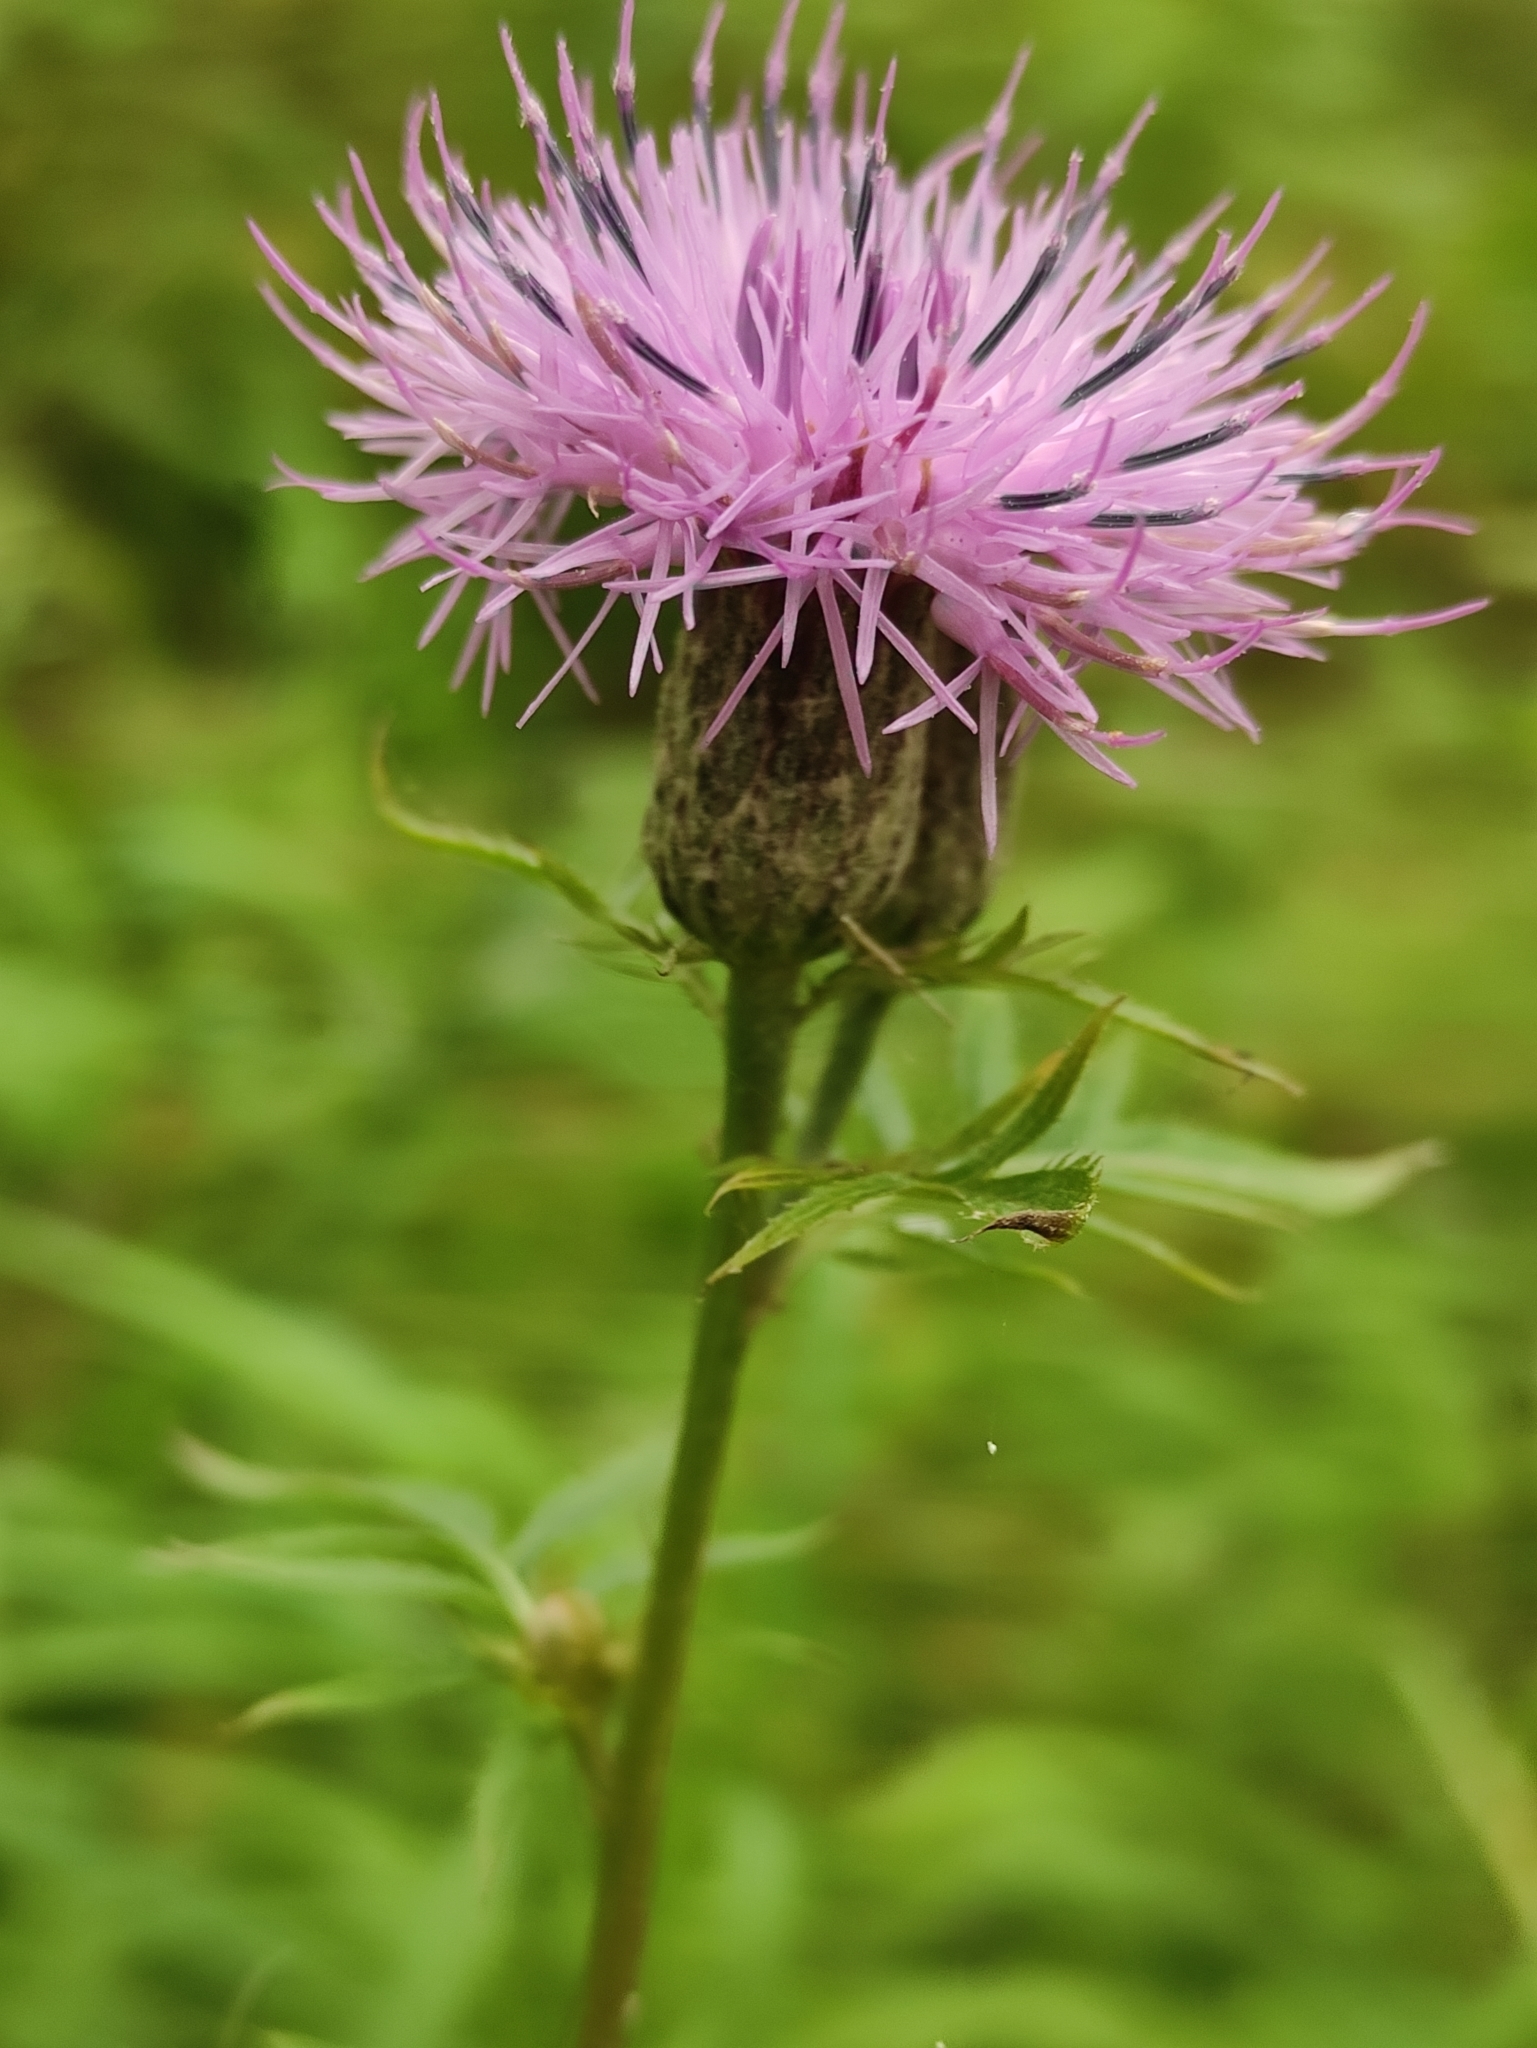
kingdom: Plantae
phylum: Tracheophyta
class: Magnoliopsida
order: Asterales
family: Asteraceae
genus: Serratula
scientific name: Serratula coronata
